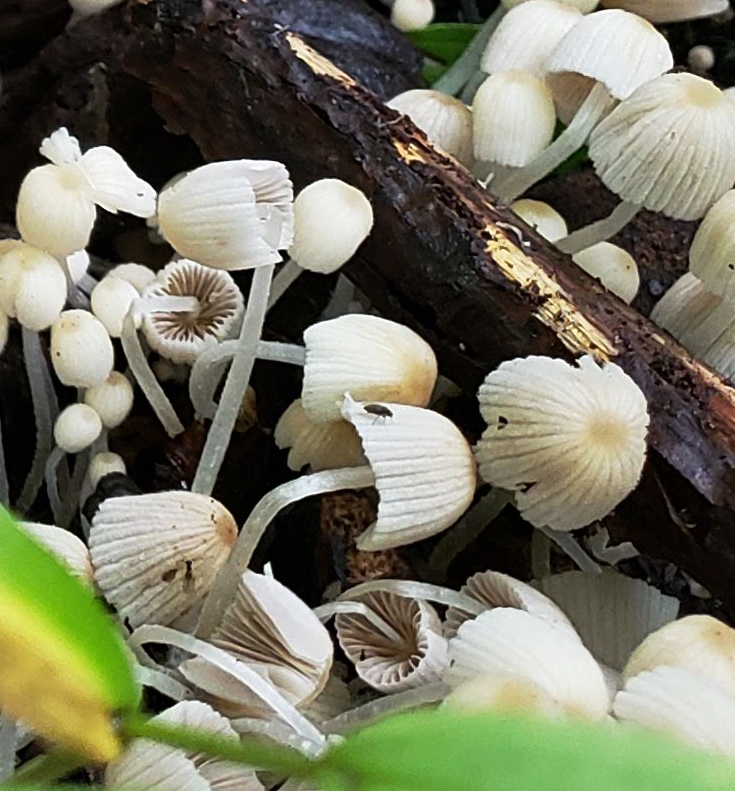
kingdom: Fungi
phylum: Basidiomycota
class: Agaricomycetes
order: Agaricales
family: Psathyrellaceae
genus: Coprinellus
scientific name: Coprinellus disseminatus
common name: Fairies' bonnets
